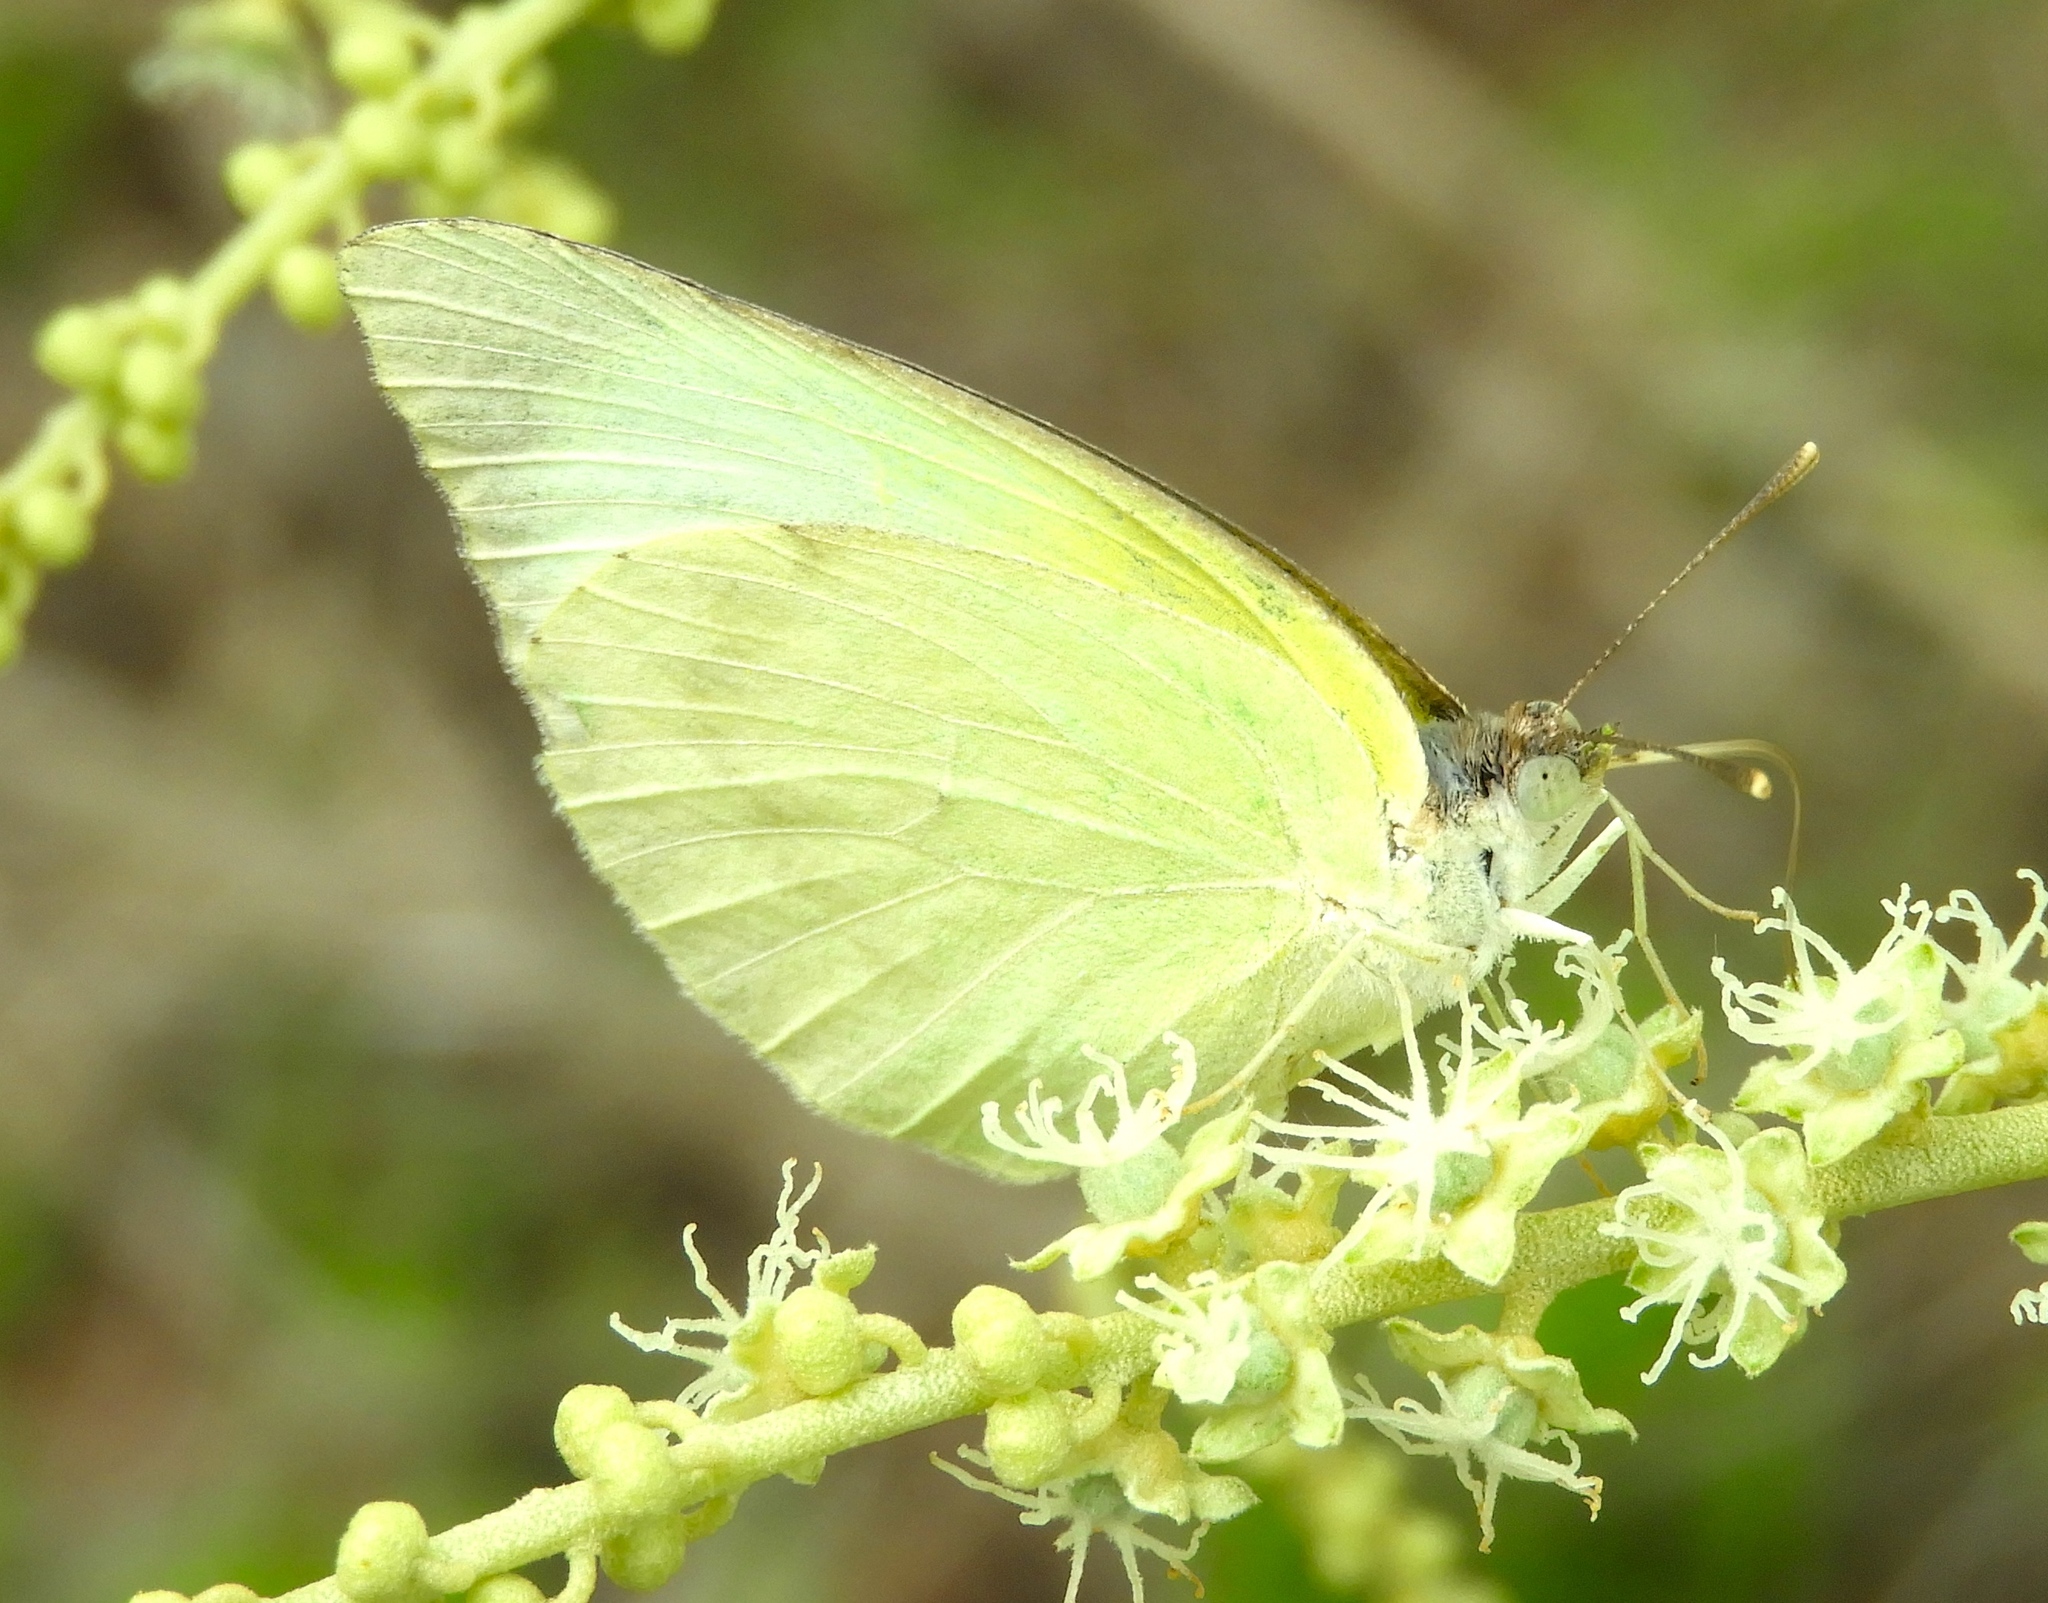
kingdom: Animalia
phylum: Arthropoda
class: Insecta
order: Lepidoptera
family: Pieridae
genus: Kricogonia
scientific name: Kricogonia lyside
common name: Guayacan sulphur,
